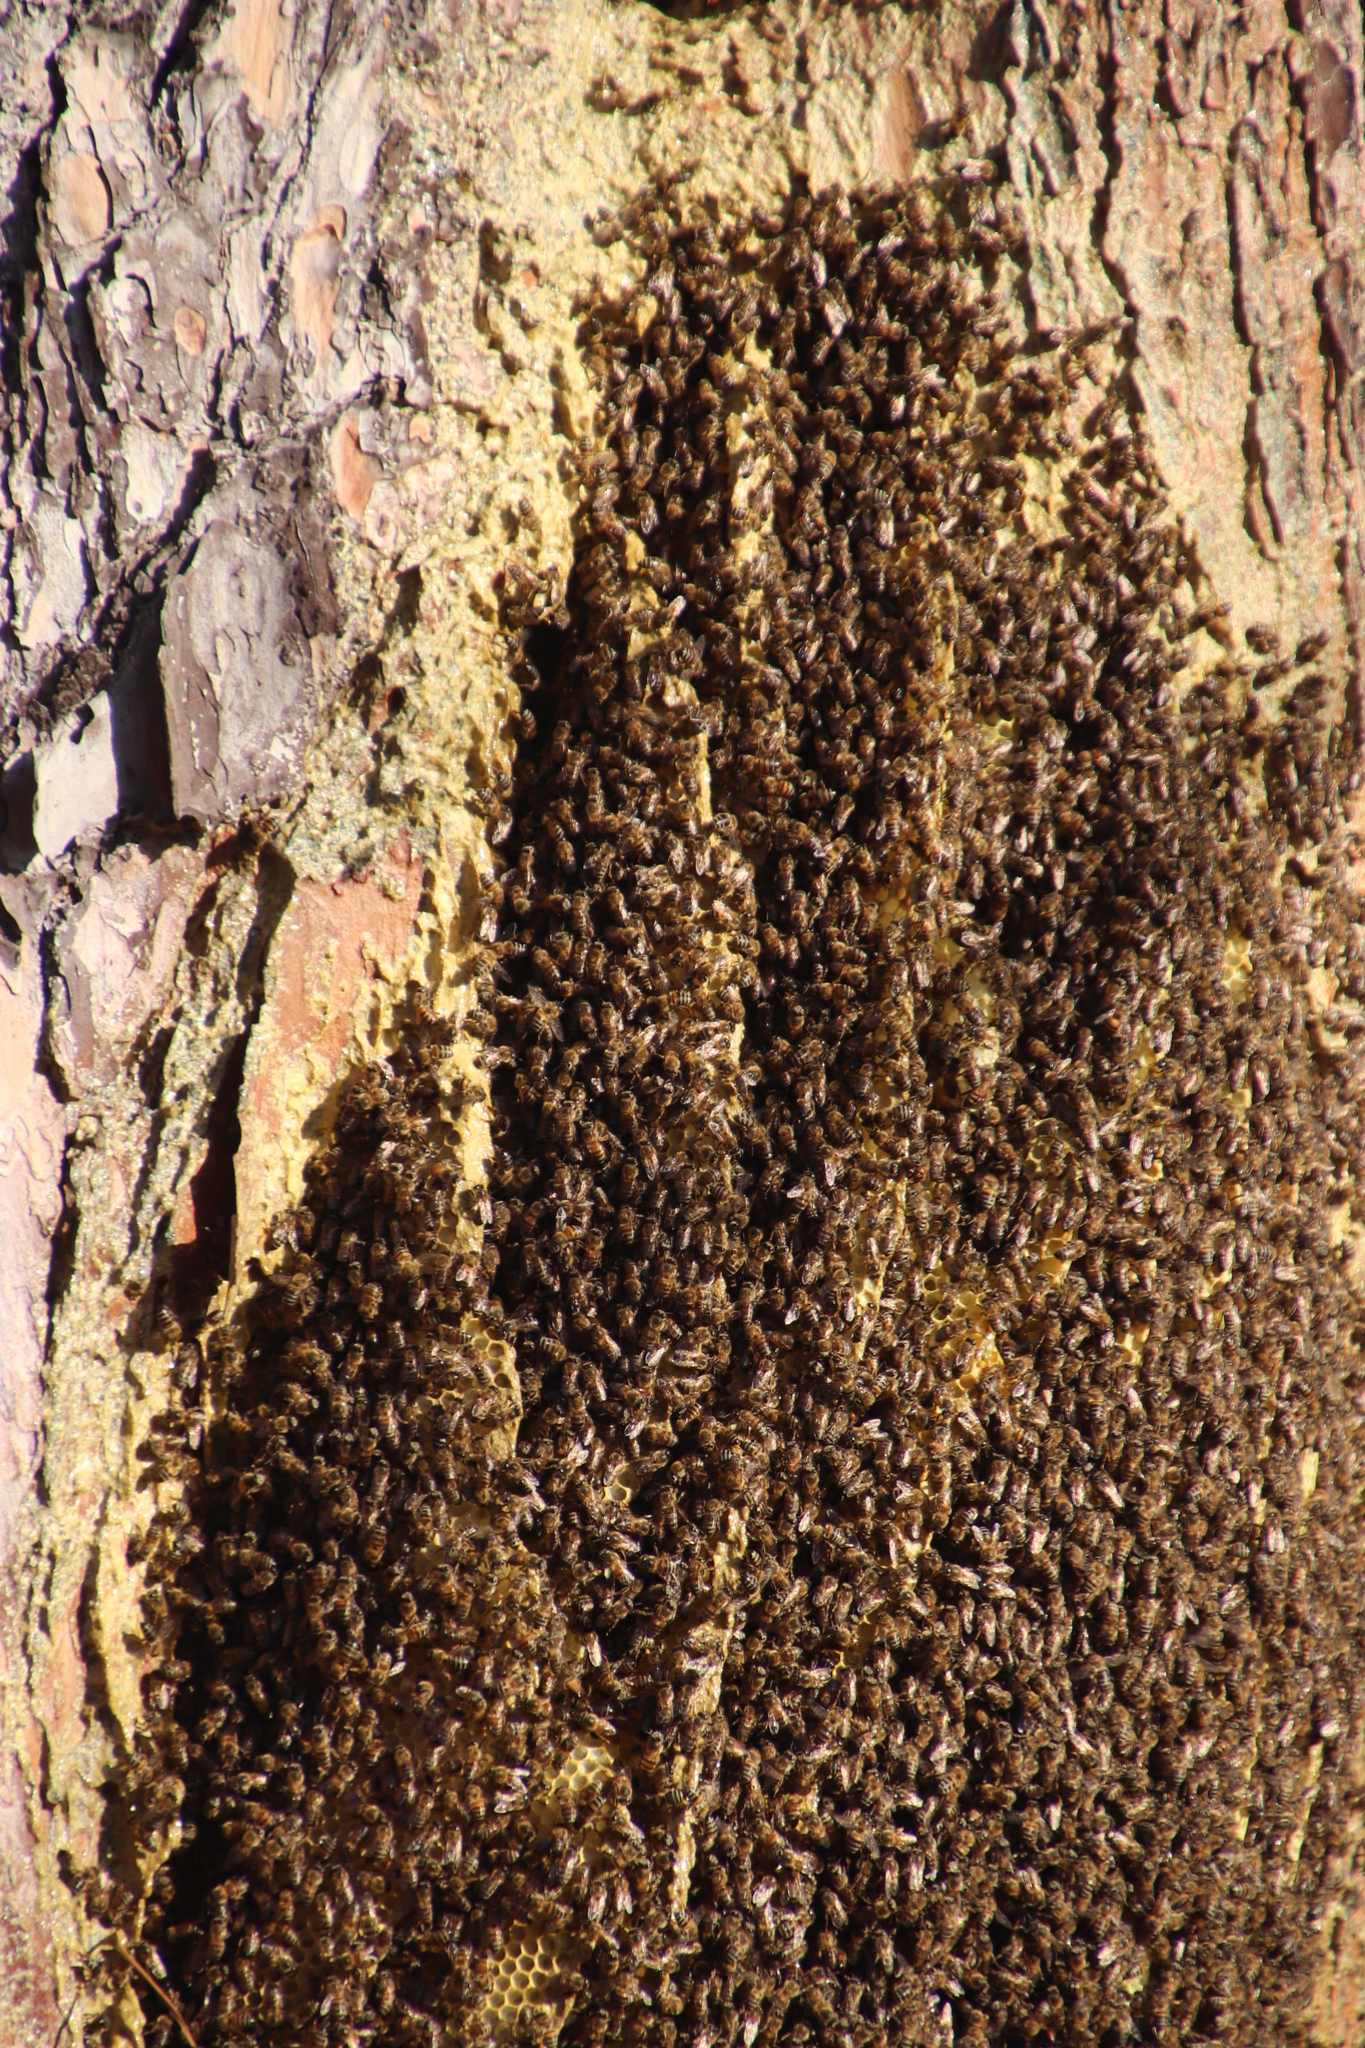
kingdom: Animalia
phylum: Arthropoda
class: Insecta
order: Hymenoptera
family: Apidae
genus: Apis
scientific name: Apis mellifera
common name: Honey bee
